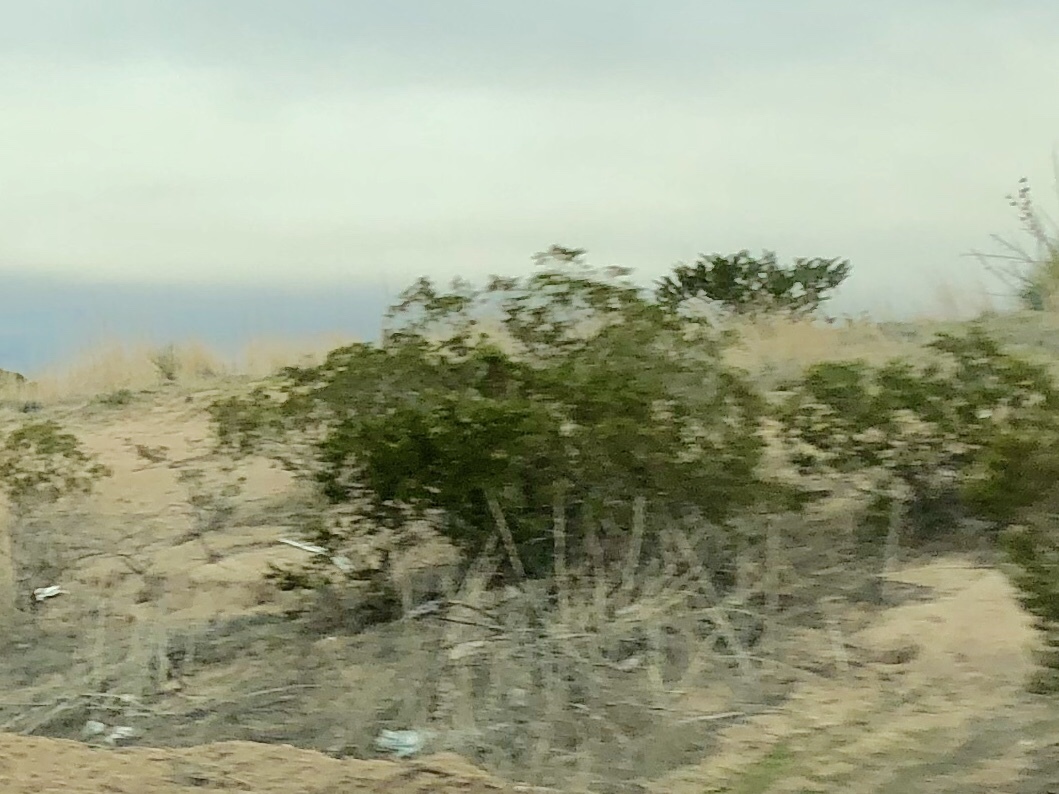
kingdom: Plantae
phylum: Tracheophyta
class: Magnoliopsida
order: Zygophyllales
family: Zygophyllaceae
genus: Larrea
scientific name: Larrea tridentata
